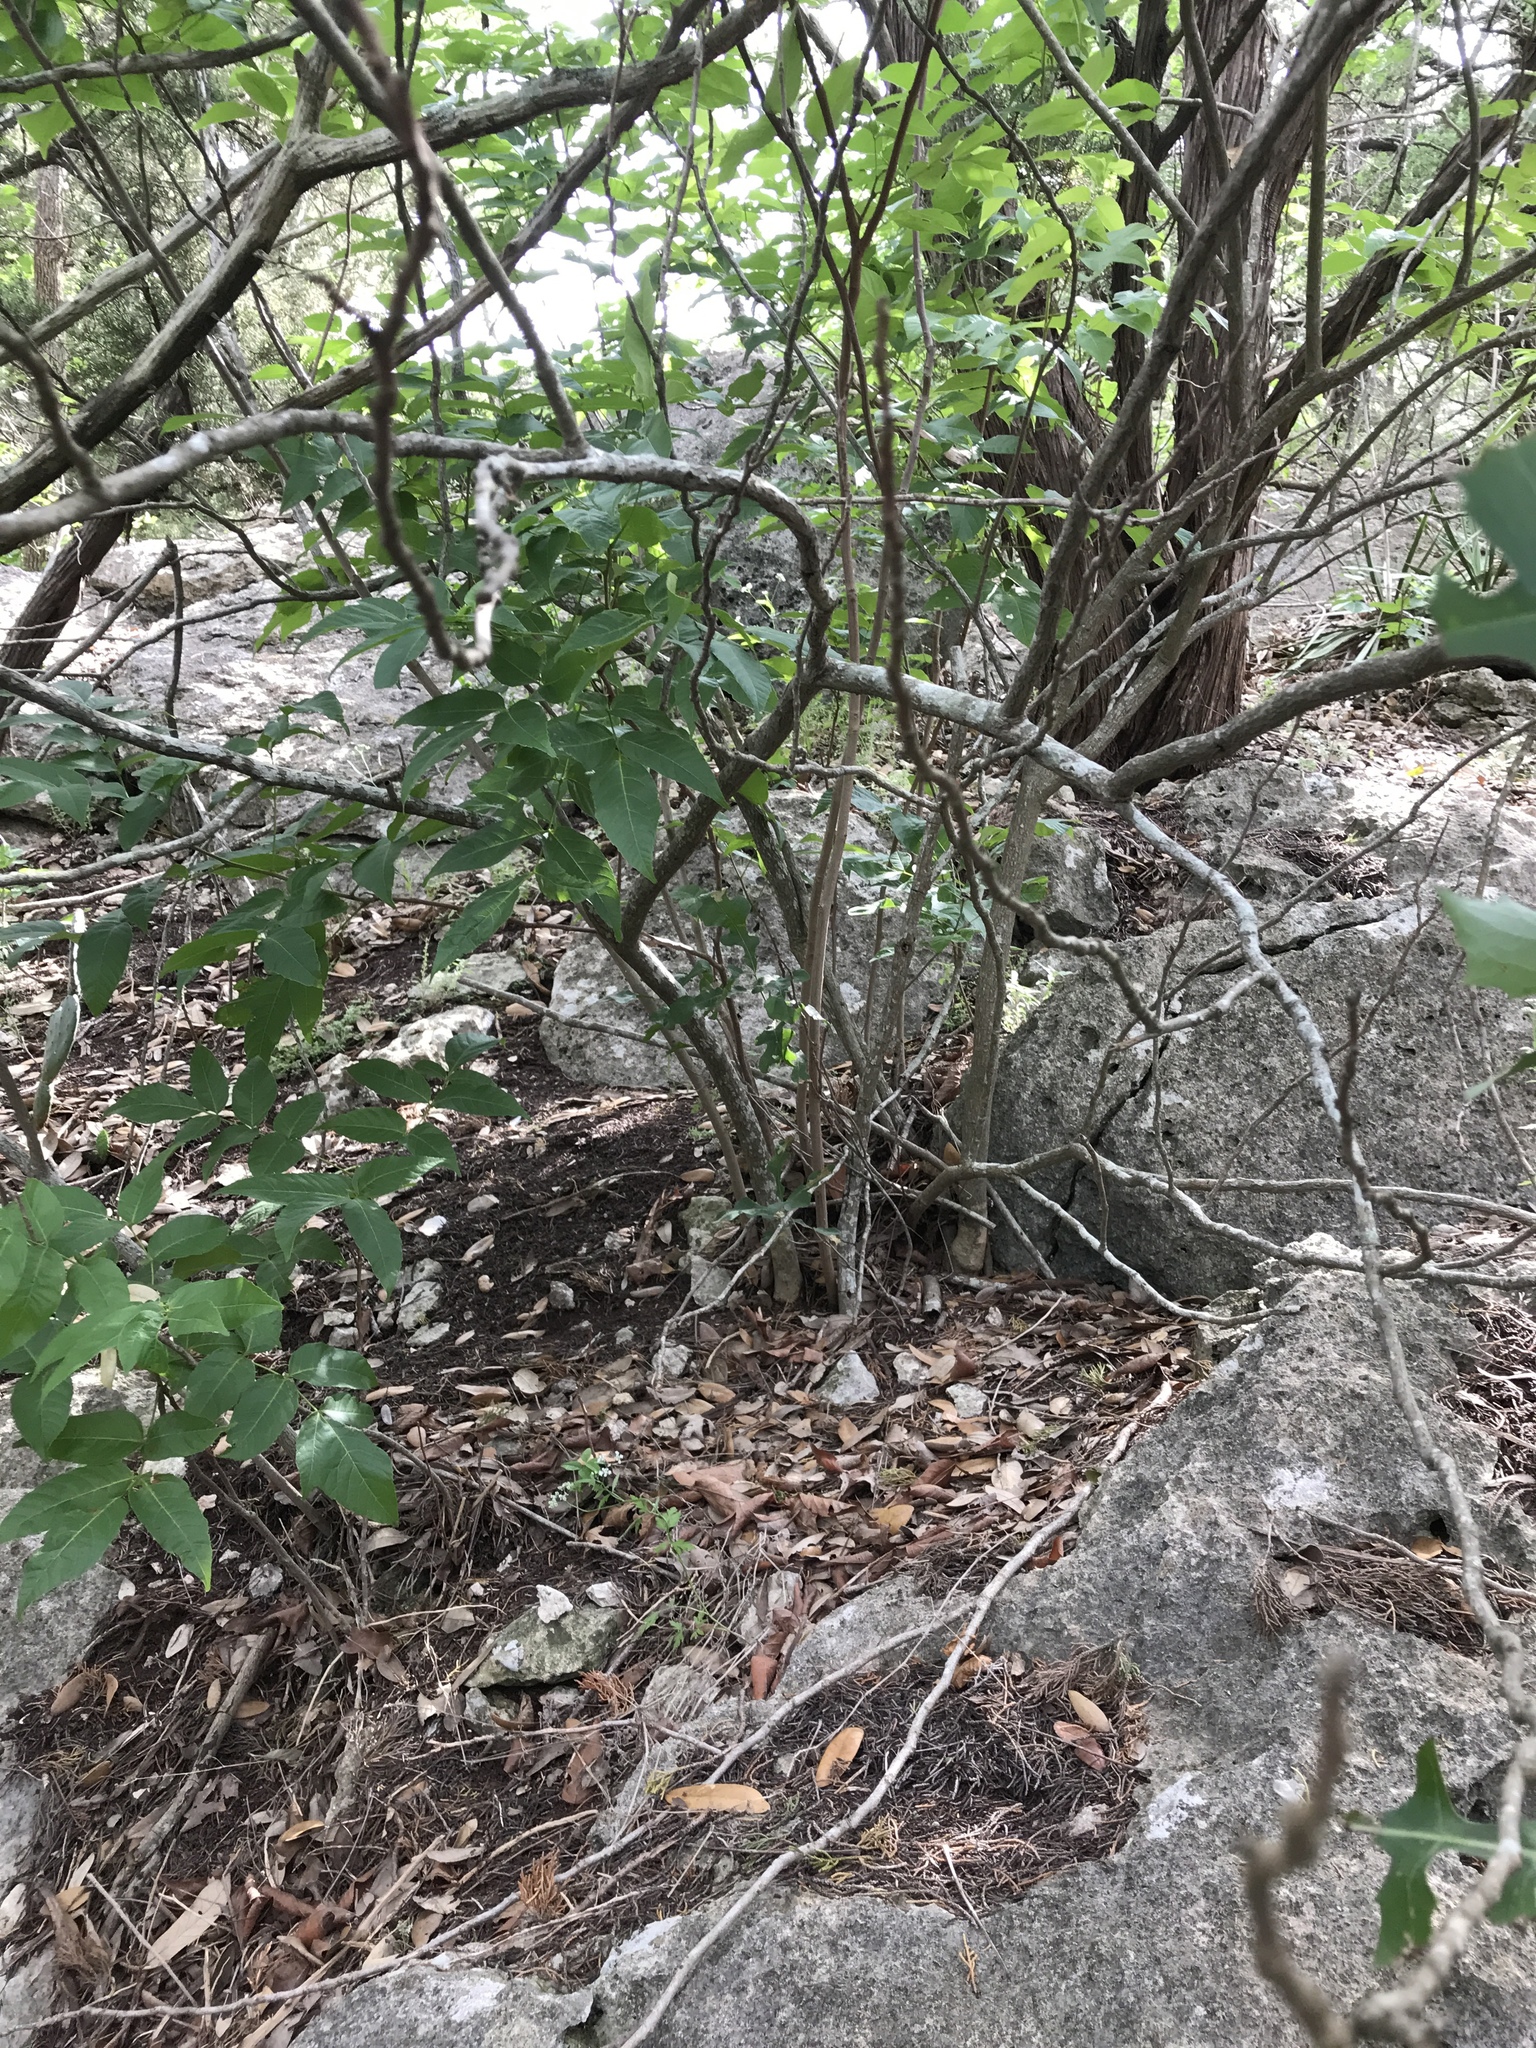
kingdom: Plantae
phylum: Tracheophyta
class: Magnoliopsida
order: Sapindales
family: Sapindaceae
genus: Ungnadia
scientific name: Ungnadia speciosa
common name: Texas-buckeye
